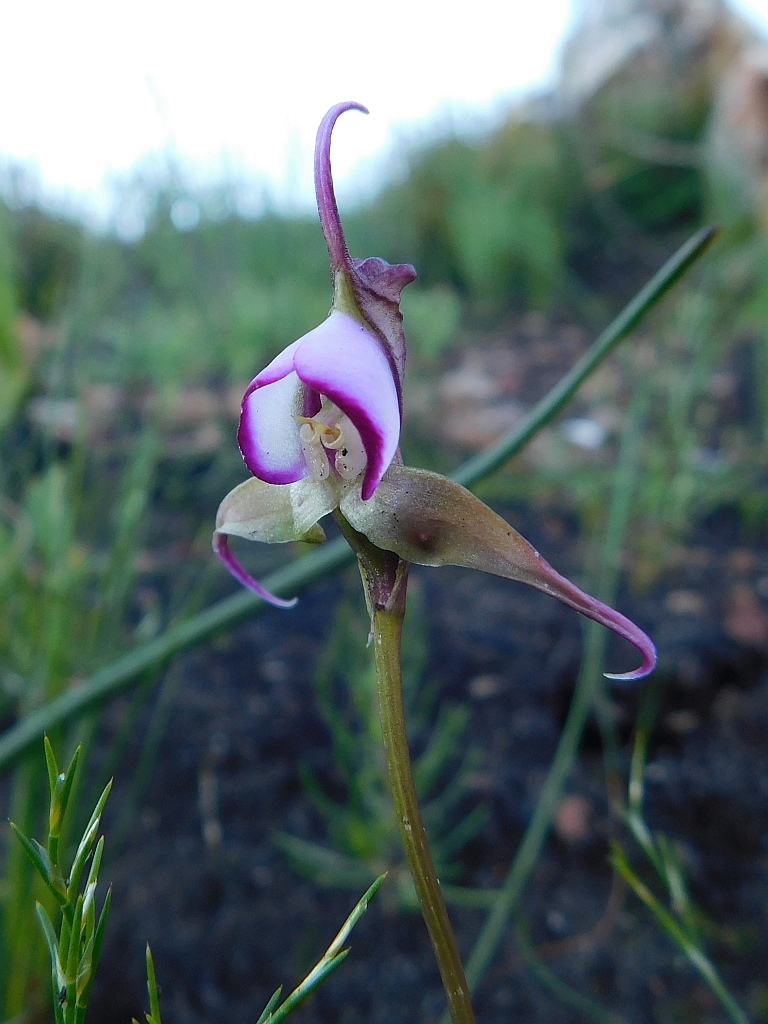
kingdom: Plantae
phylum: Tracheophyta
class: Liliopsida
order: Asparagales
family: Orchidaceae
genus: Disperis
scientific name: Disperis capensis
